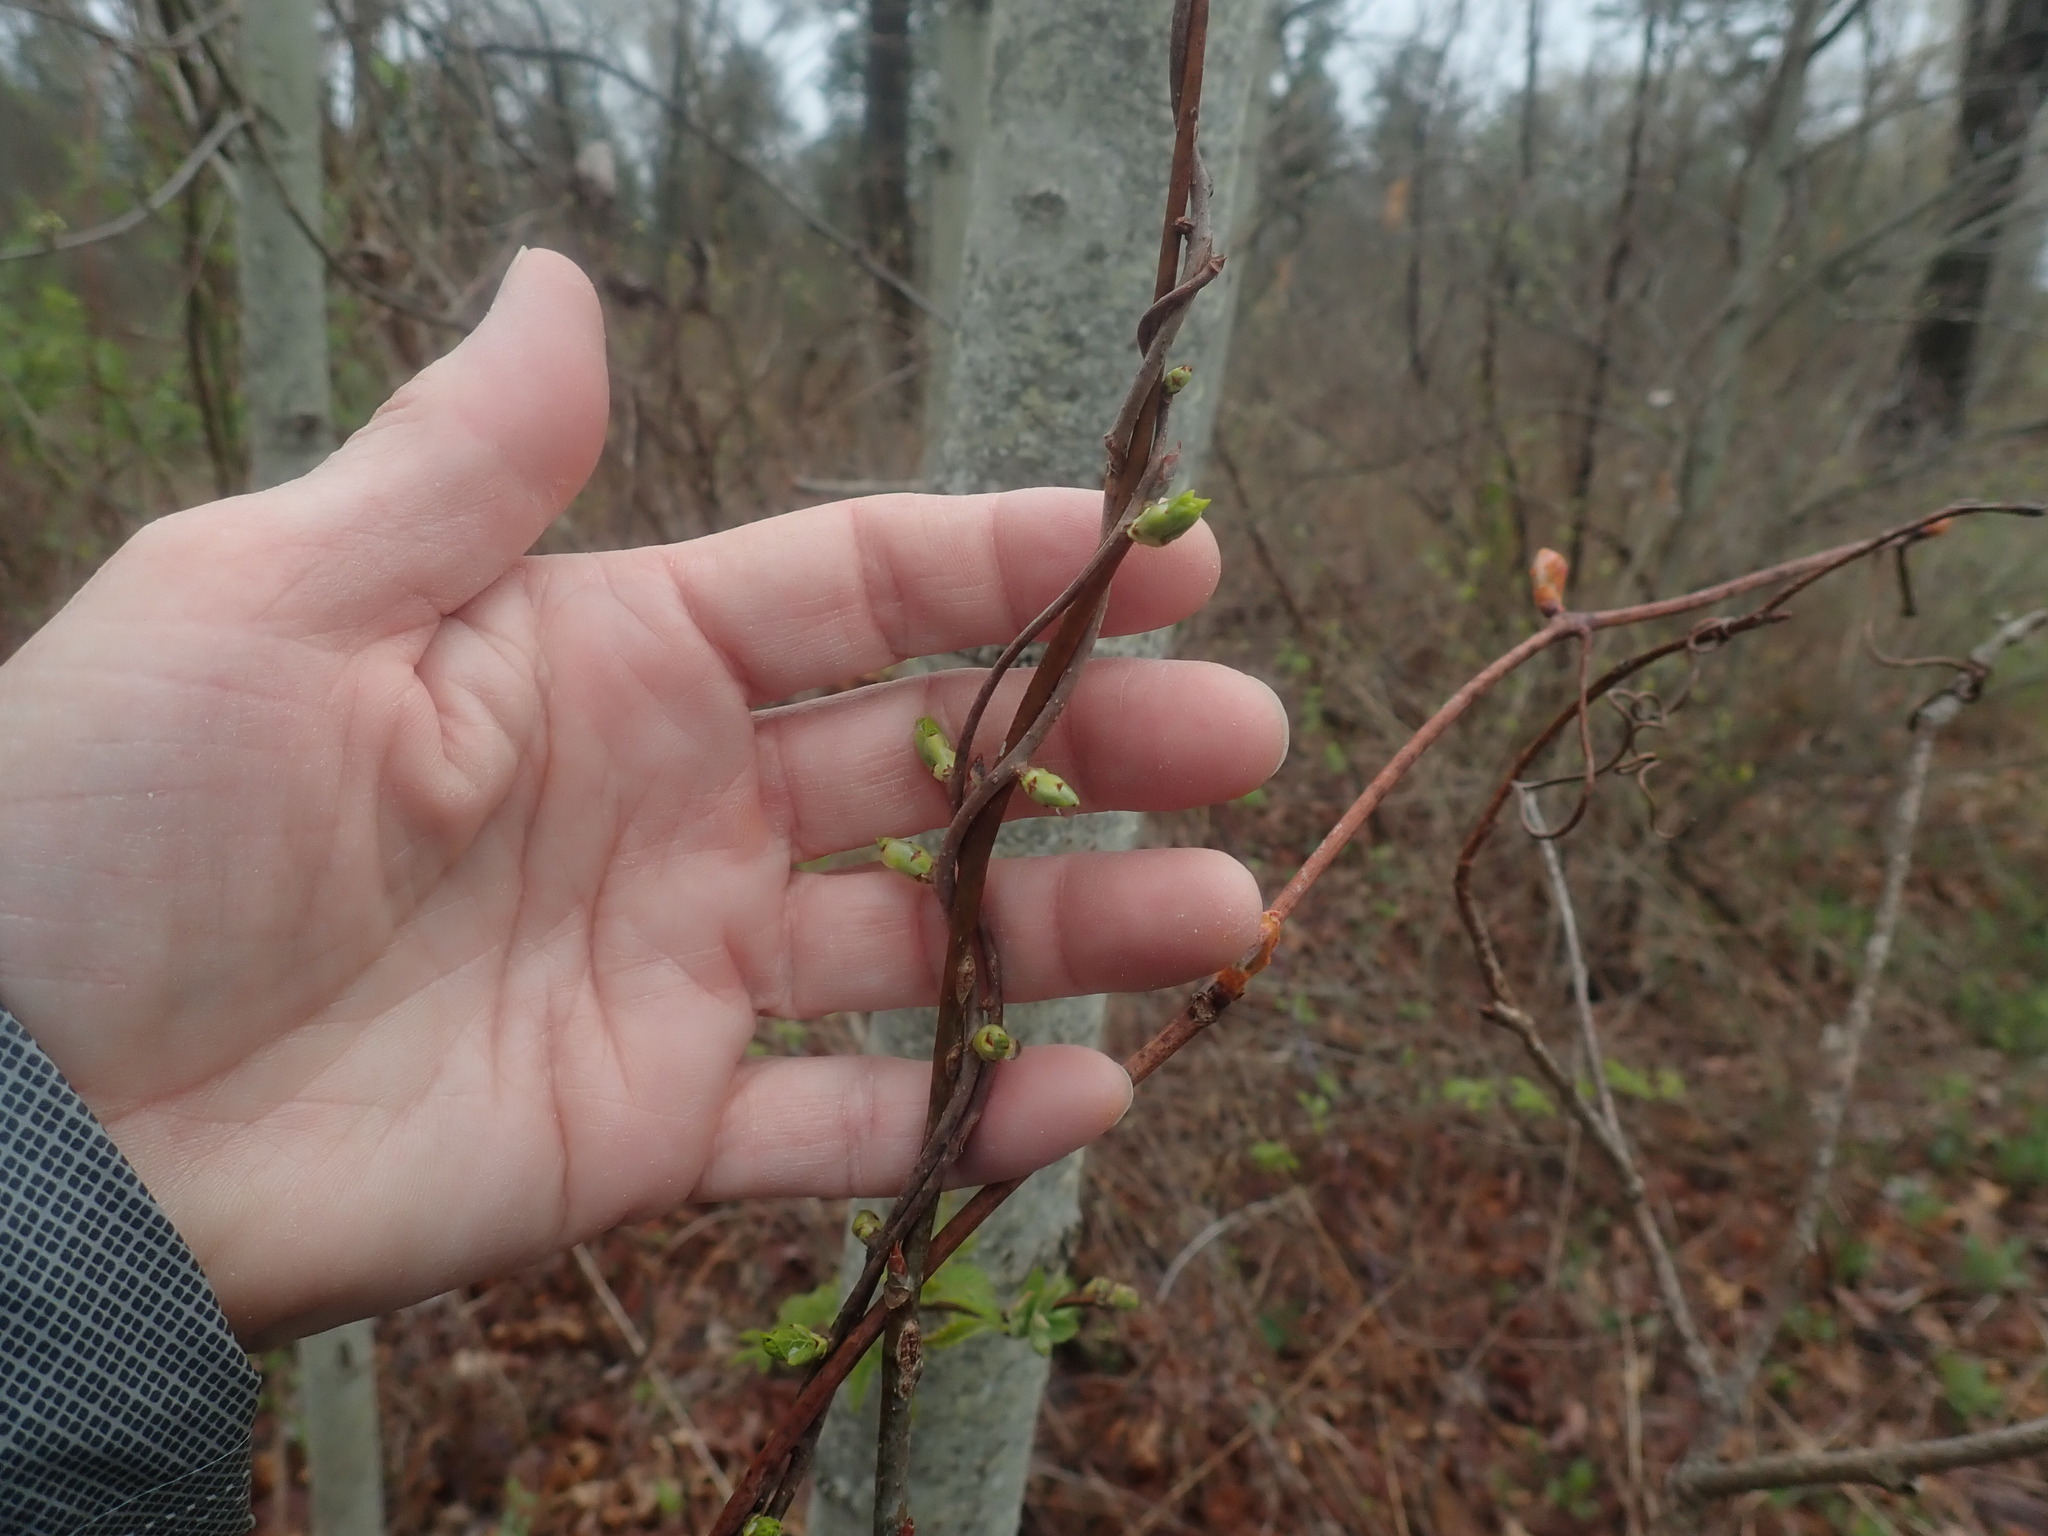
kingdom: Plantae
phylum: Tracheophyta
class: Magnoliopsida
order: Celastrales
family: Celastraceae
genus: Celastrus
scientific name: Celastrus orbiculatus
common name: Oriental bittersweet
